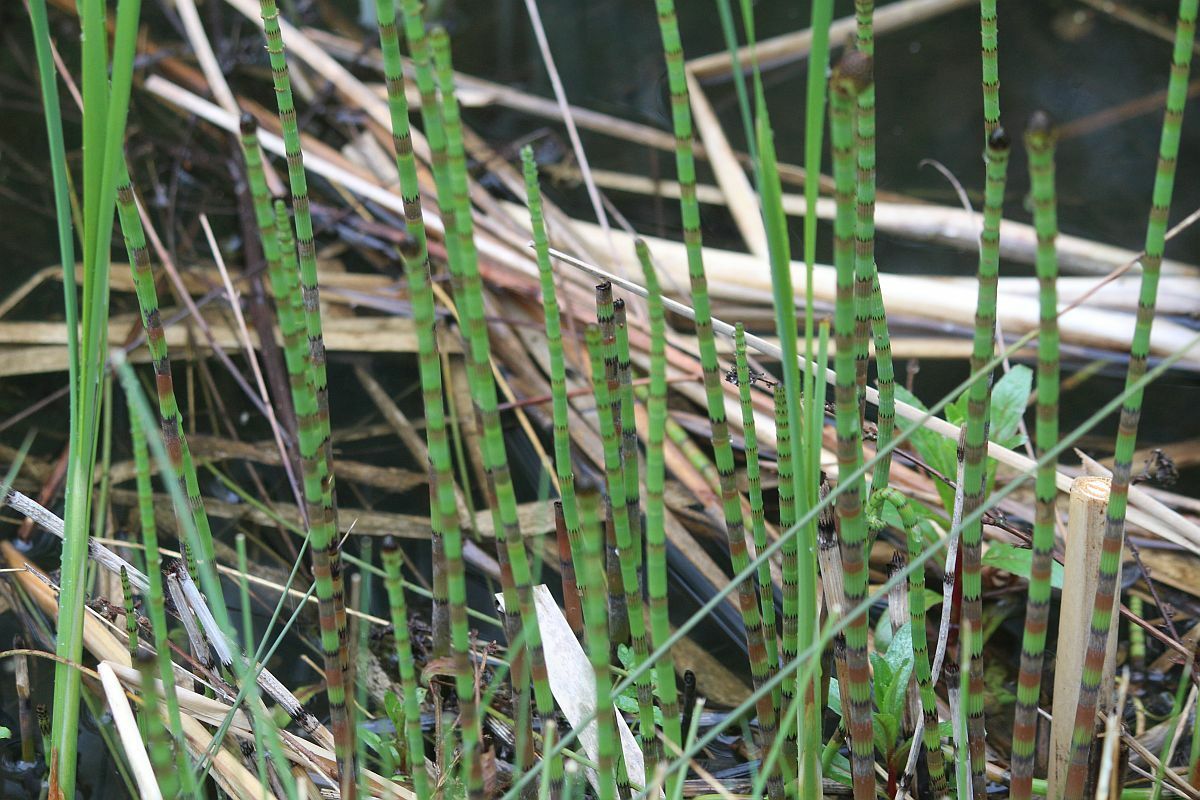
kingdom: Plantae
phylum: Tracheophyta
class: Polypodiopsida
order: Equisetales
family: Equisetaceae
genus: Equisetum
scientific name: Equisetum fluviatile
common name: Water horsetail
